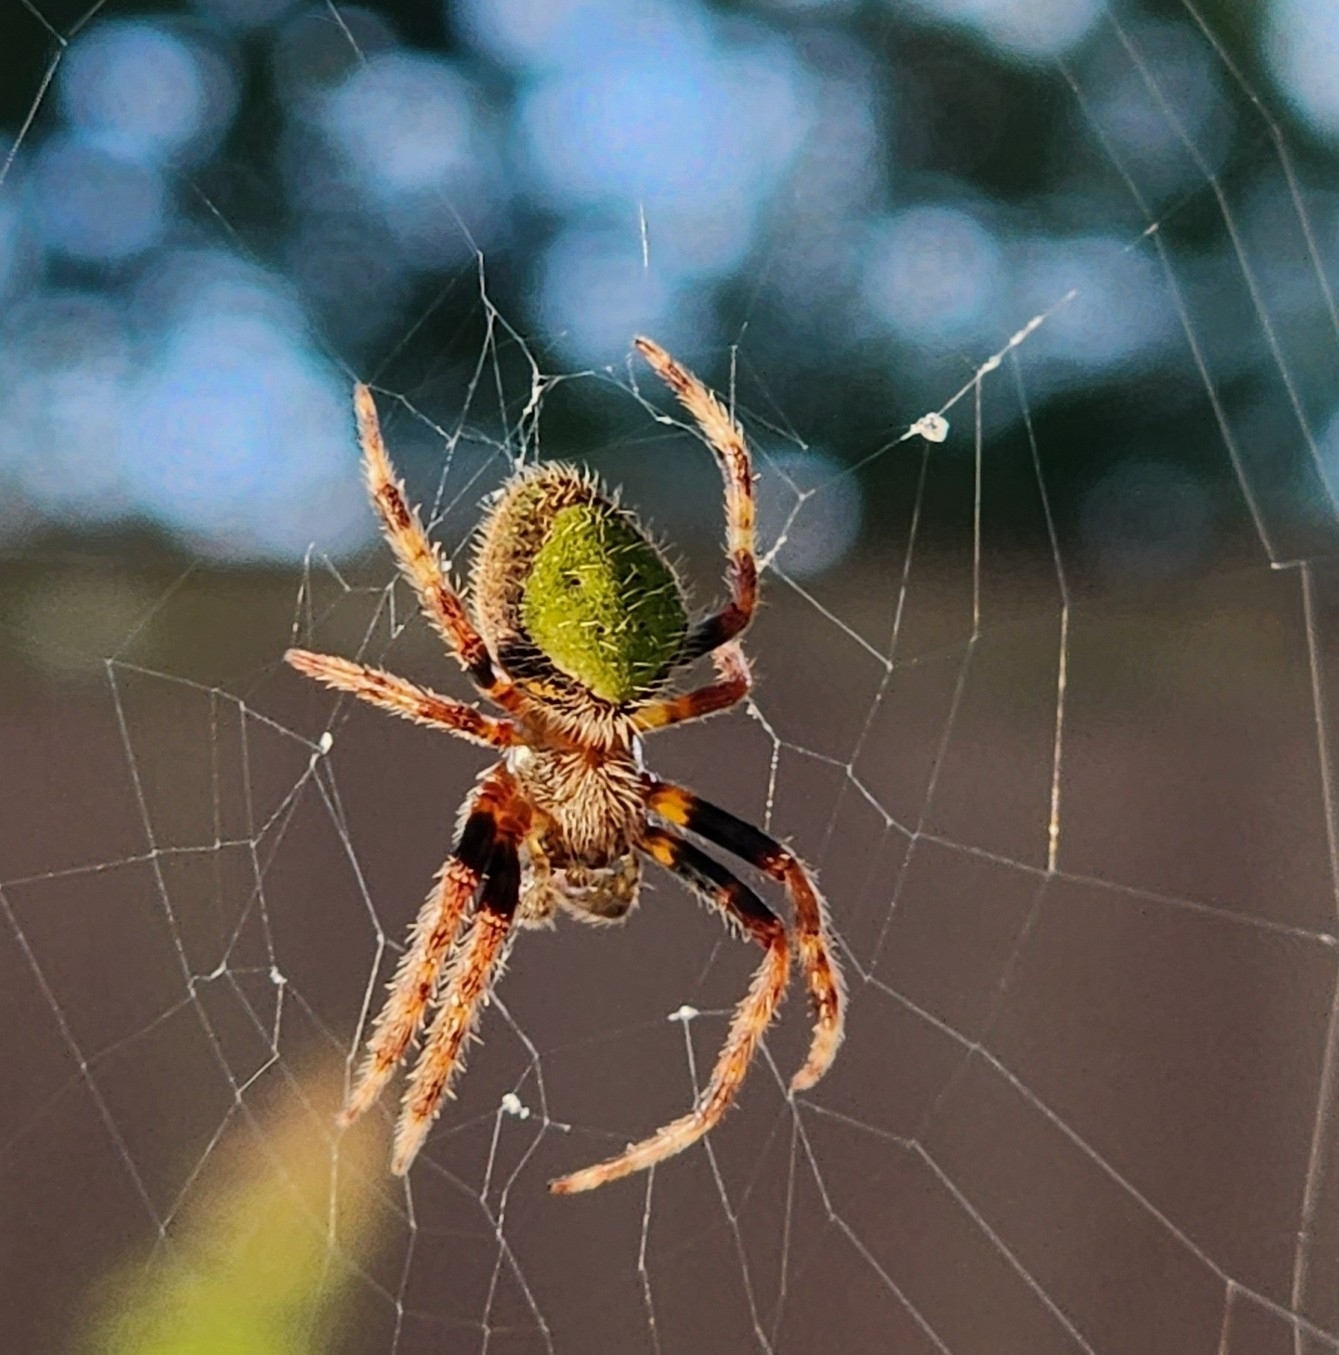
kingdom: Animalia
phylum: Arthropoda
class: Arachnida
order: Araneae
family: Araneidae
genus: Eriophora
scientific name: Eriophora ravilla
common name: Orb weavers
